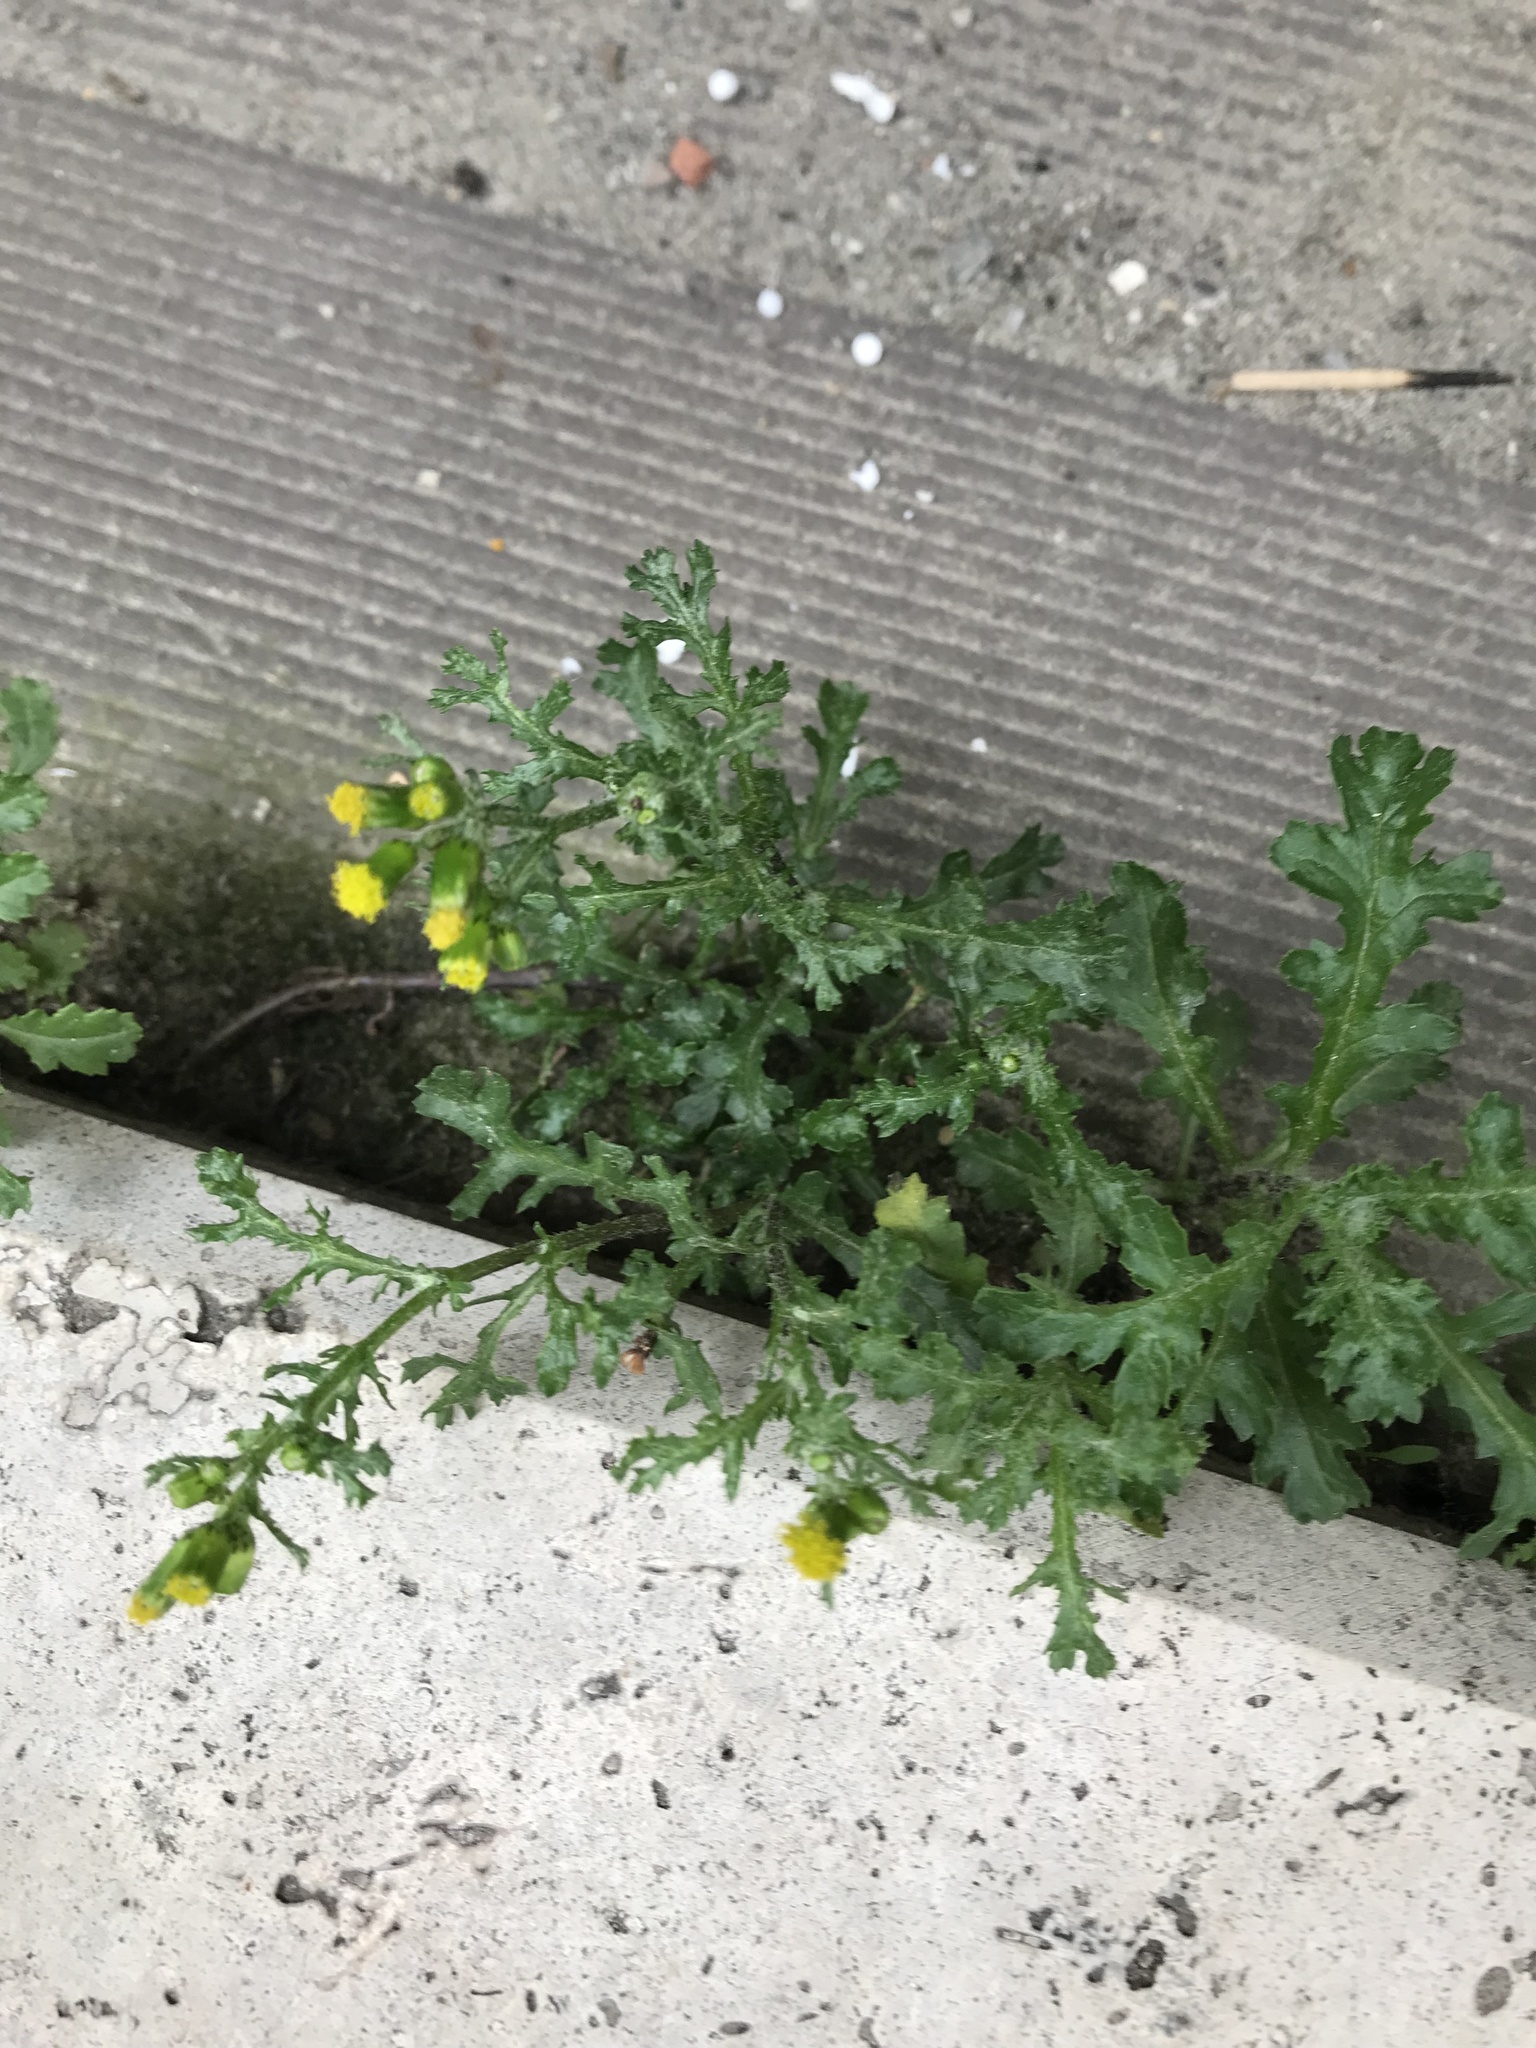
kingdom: Plantae
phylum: Tracheophyta
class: Magnoliopsida
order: Asterales
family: Asteraceae
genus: Senecio
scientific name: Senecio vulgaris
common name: Old-man-in-the-spring
